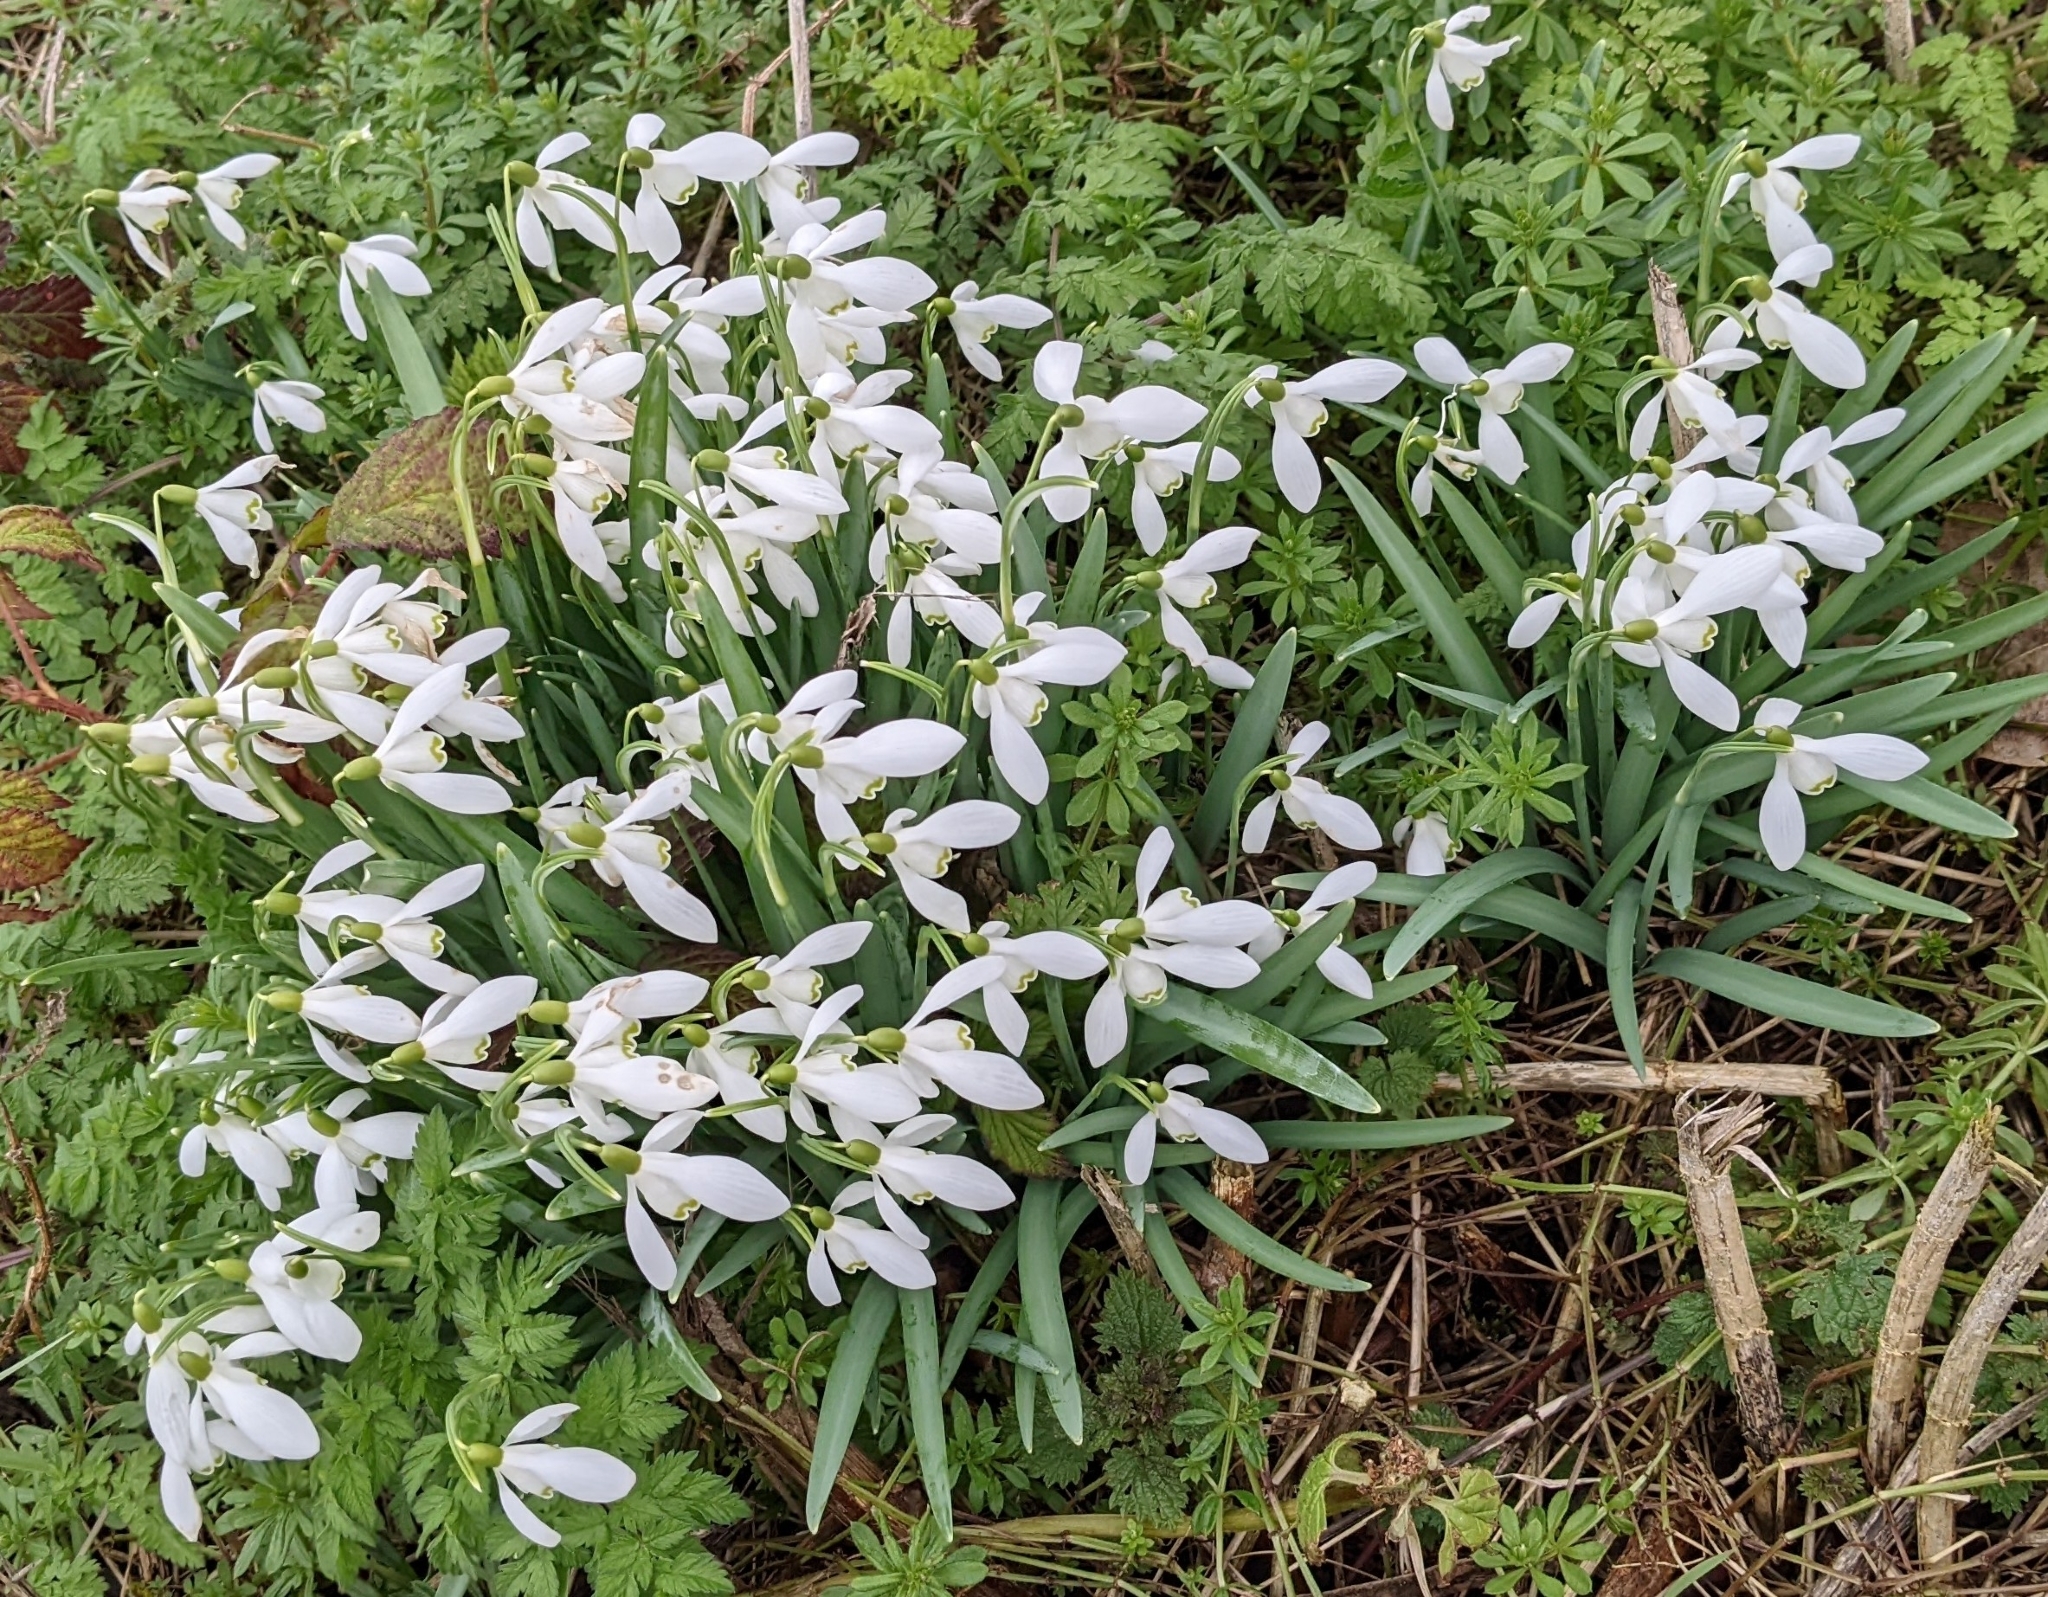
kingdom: Plantae
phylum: Tracheophyta
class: Liliopsida
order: Asparagales
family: Amaryllidaceae
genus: Galanthus
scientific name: Galanthus nivalis
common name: Snowdrop
